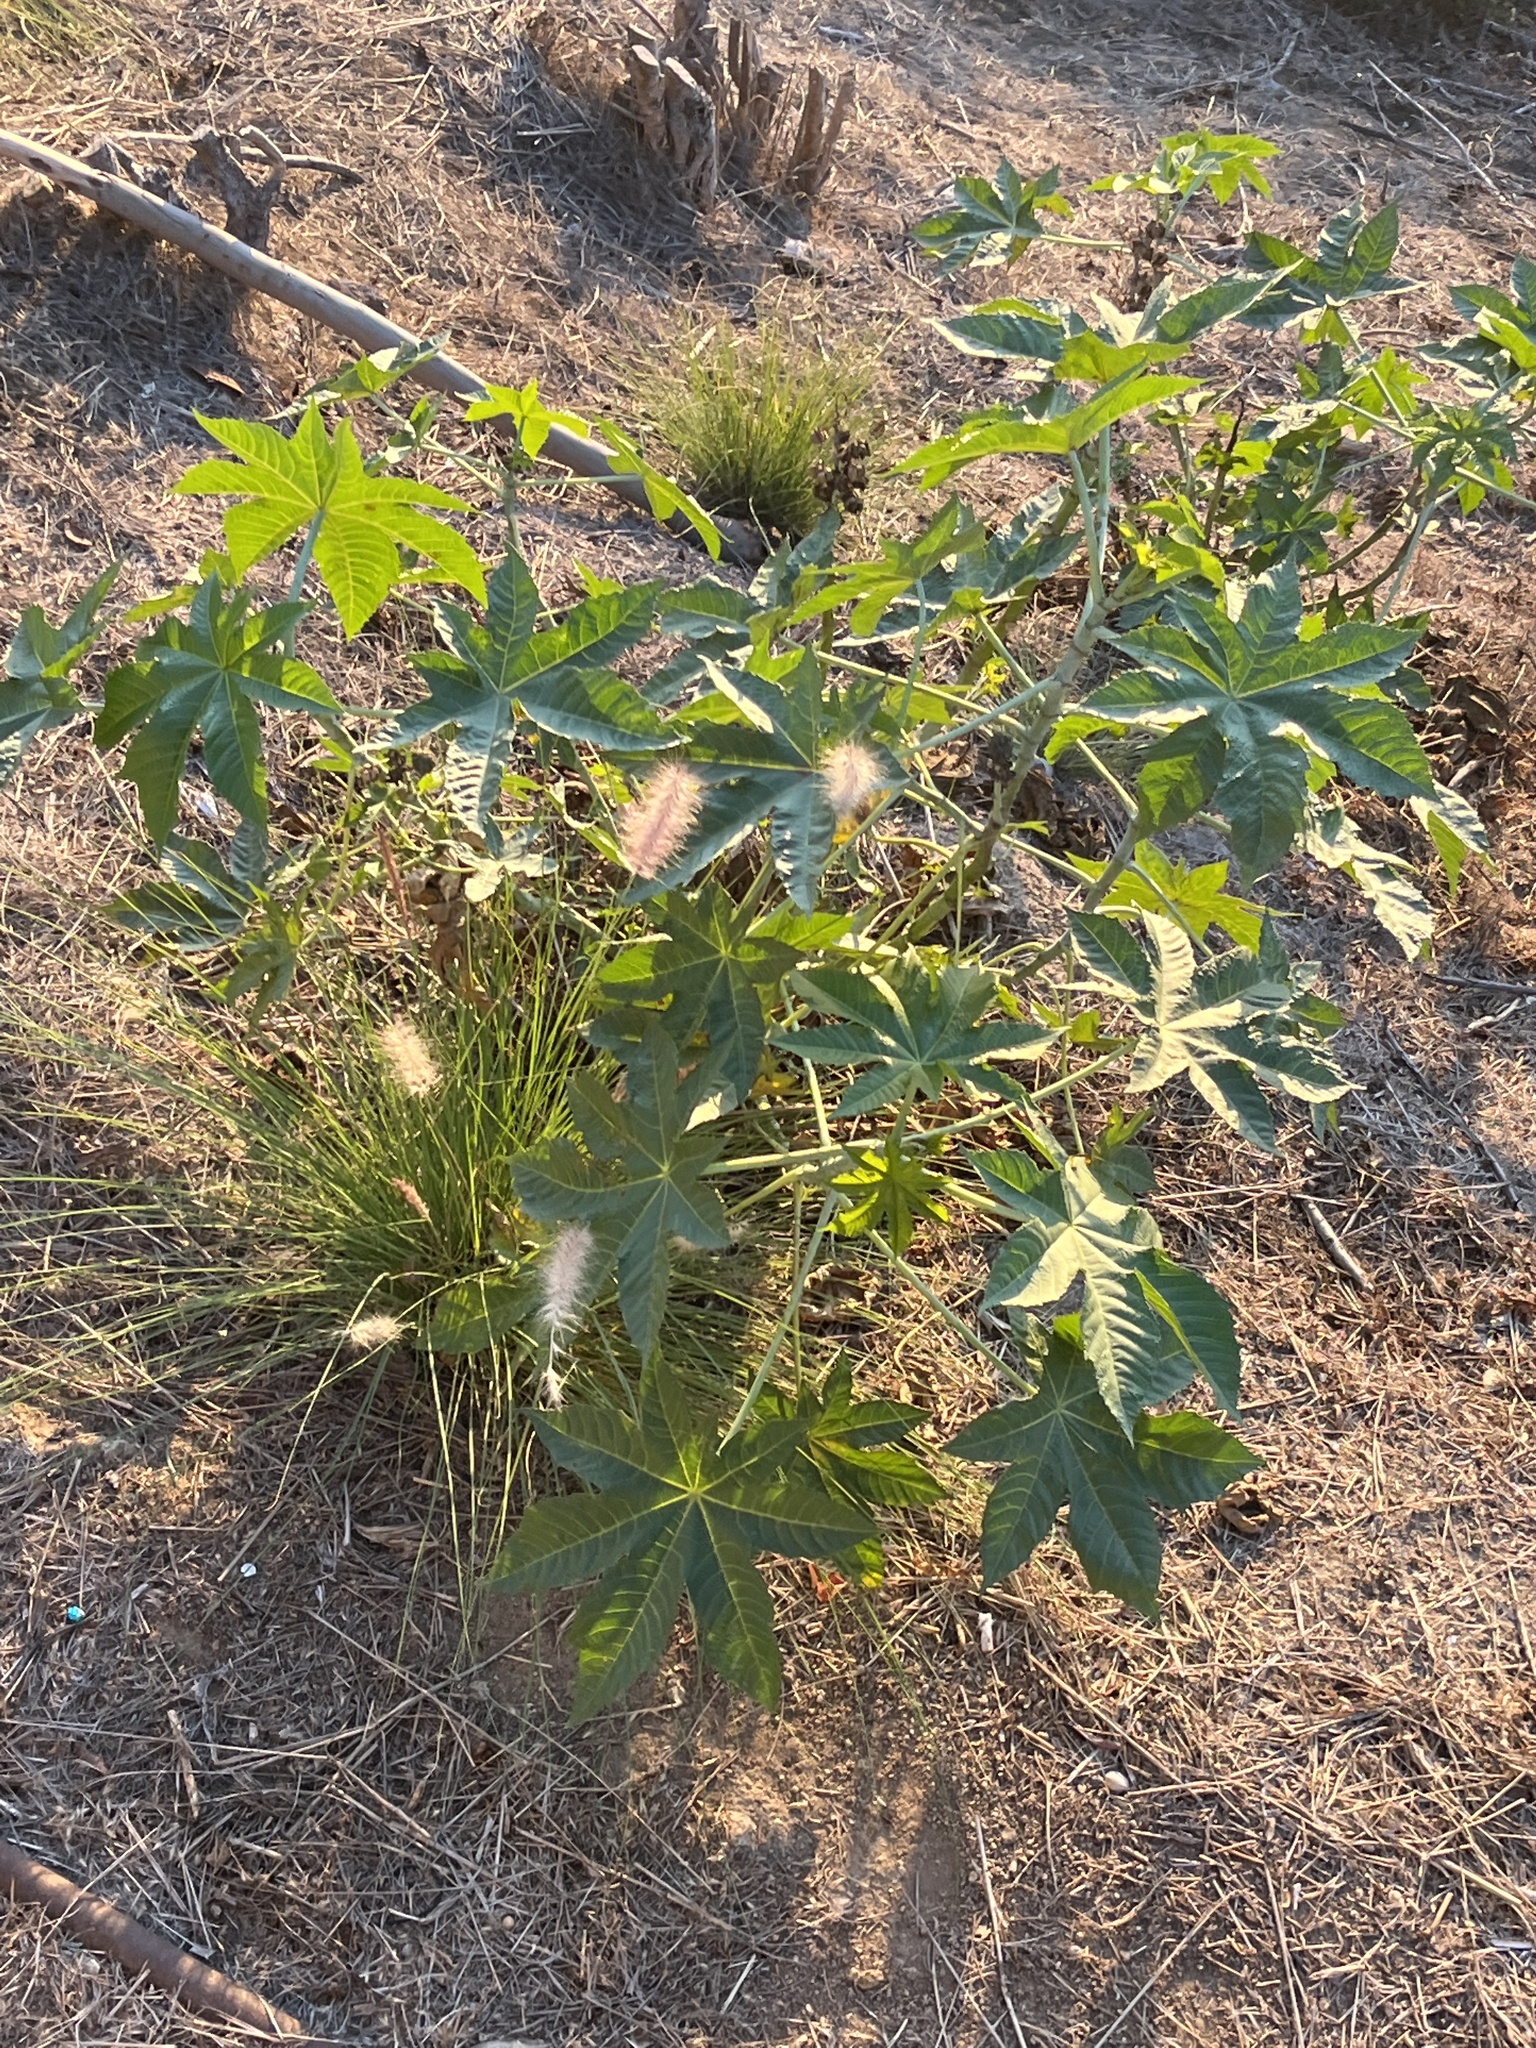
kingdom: Plantae
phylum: Tracheophyta
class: Magnoliopsida
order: Malpighiales
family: Euphorbiaceae
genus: Ricinus
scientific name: Ricinus communis
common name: Castor-oil-plant
